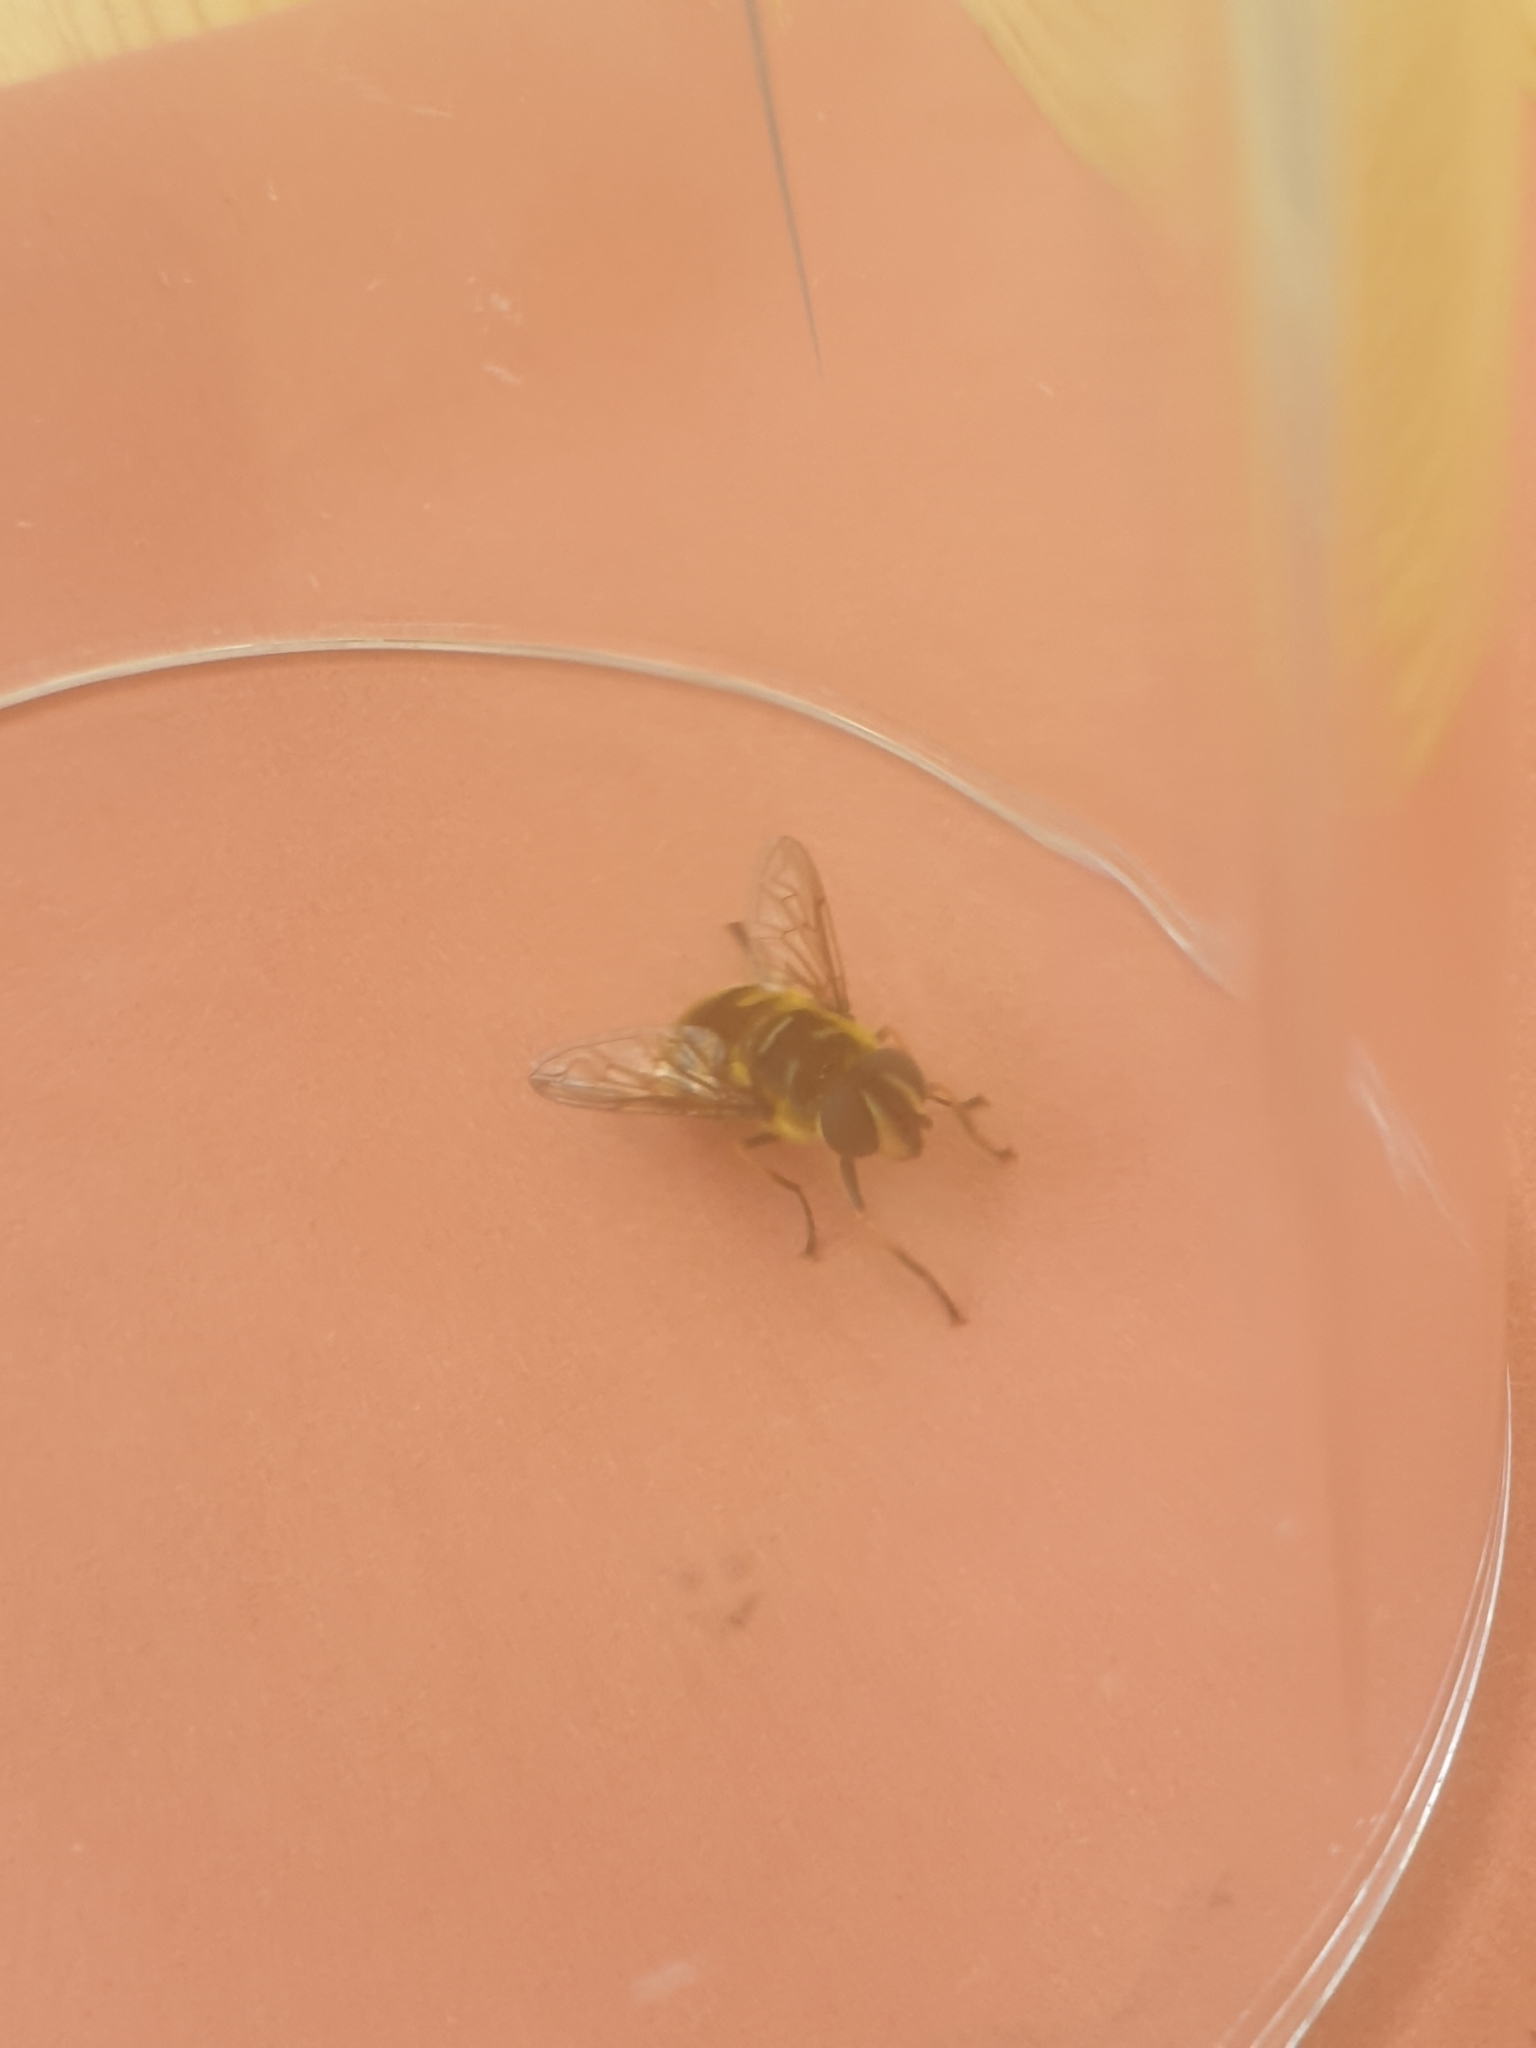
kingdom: Animalia
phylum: Arthropoda
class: Insecta
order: Diptera
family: Syrphidae
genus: Myathropa
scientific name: Myathropa florea
